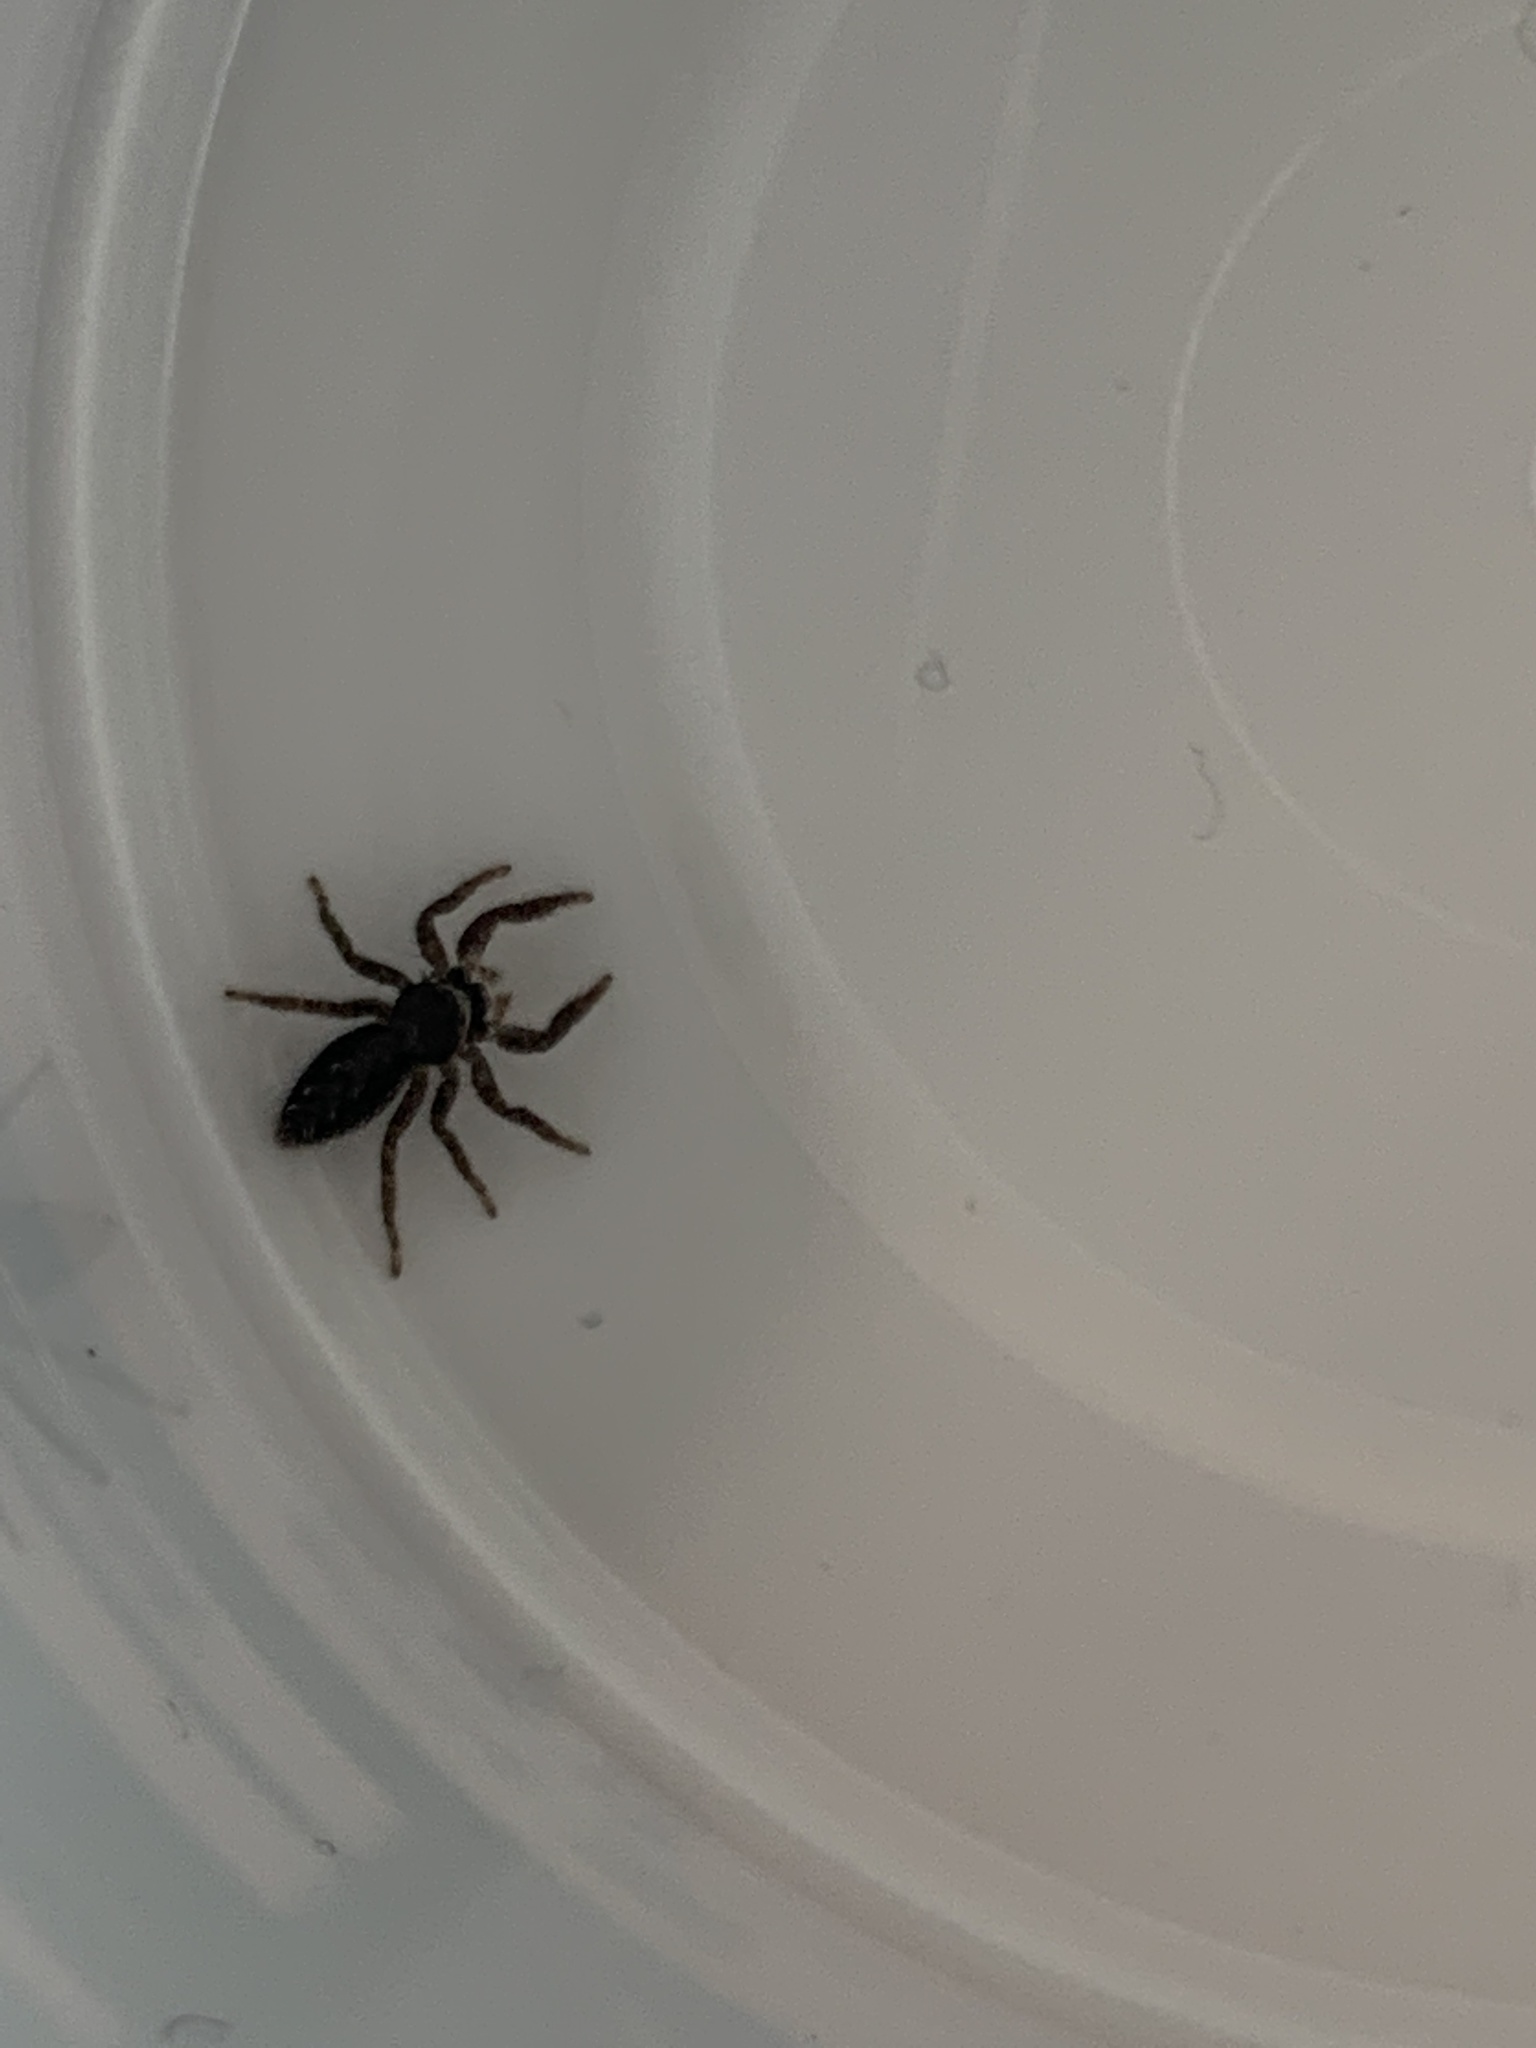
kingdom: Animalia
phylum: Arthropoda
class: Arachnida
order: Araneae
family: Salticidae
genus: Platycryptus
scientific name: Platycryptus californicus
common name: Jumping spiders
